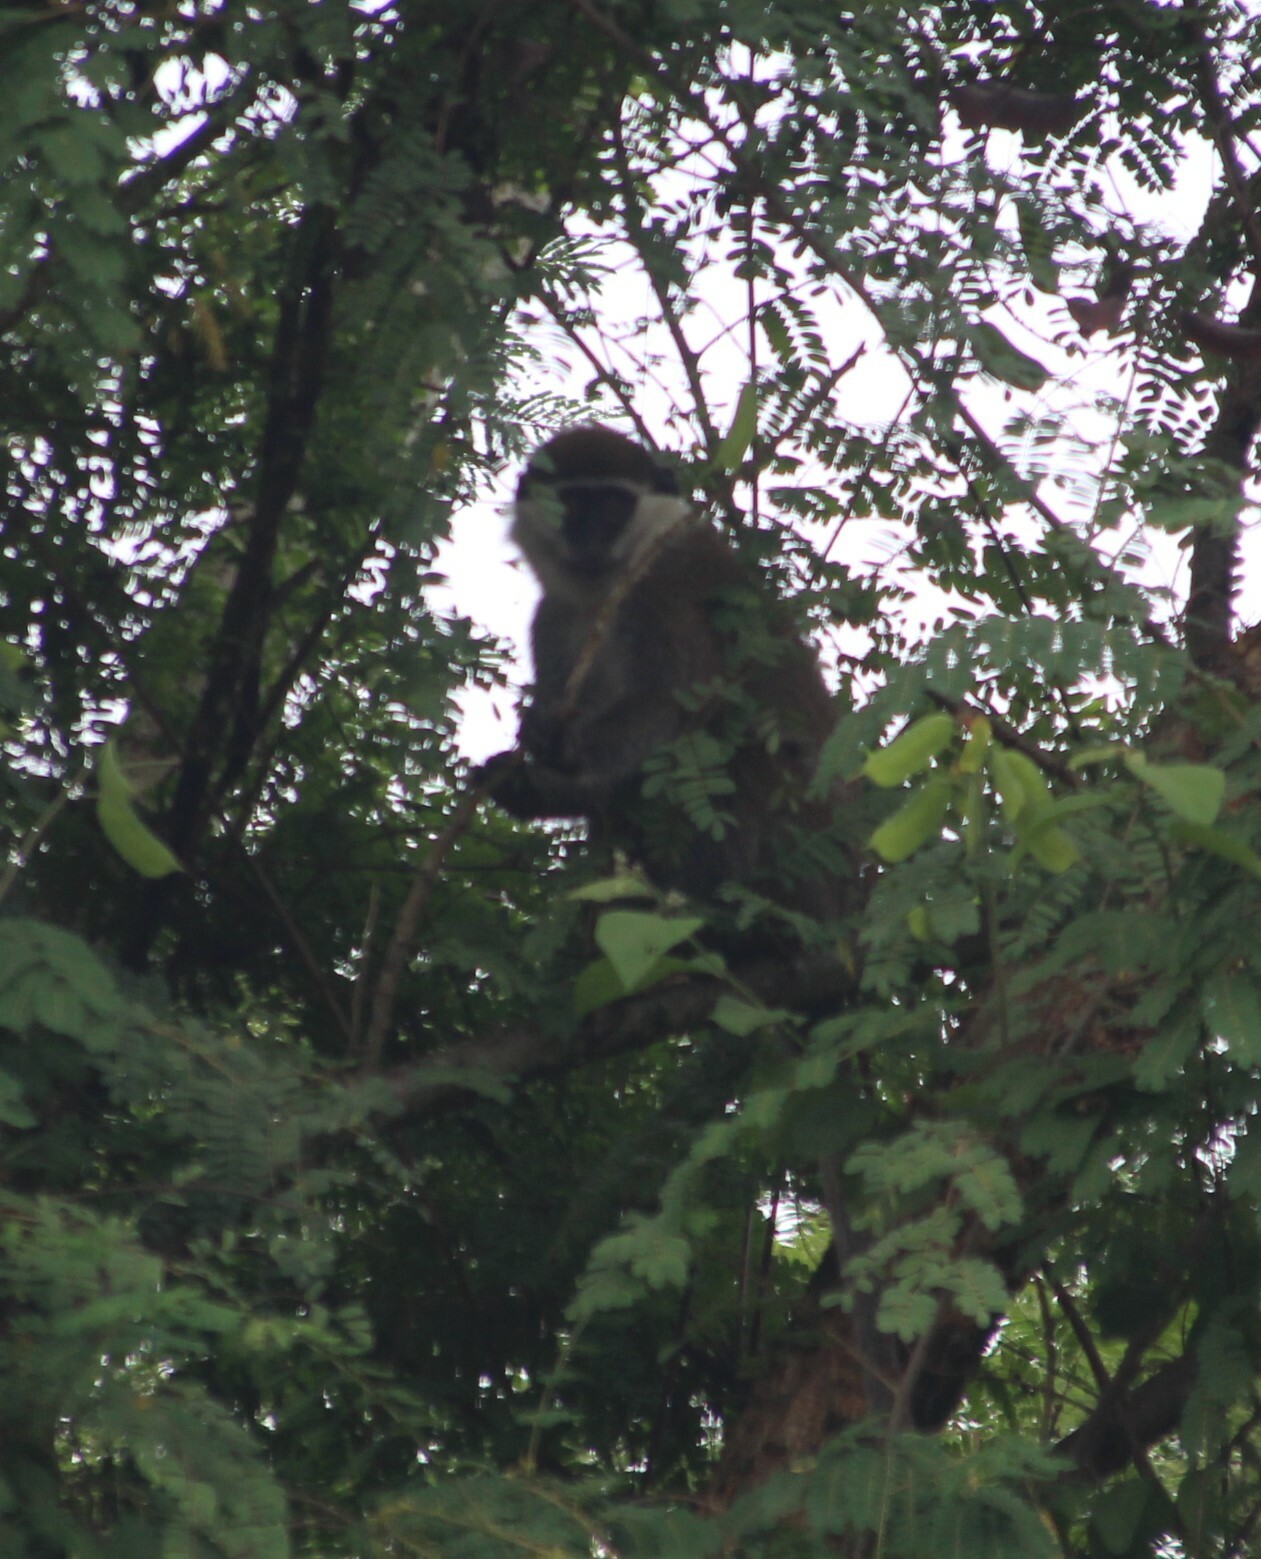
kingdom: Animalia
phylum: Chordata
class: Mammalia
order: Primates
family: Cercopithecidae
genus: Chlorocebus
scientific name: Chlorocebus aethiops
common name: Grivet
